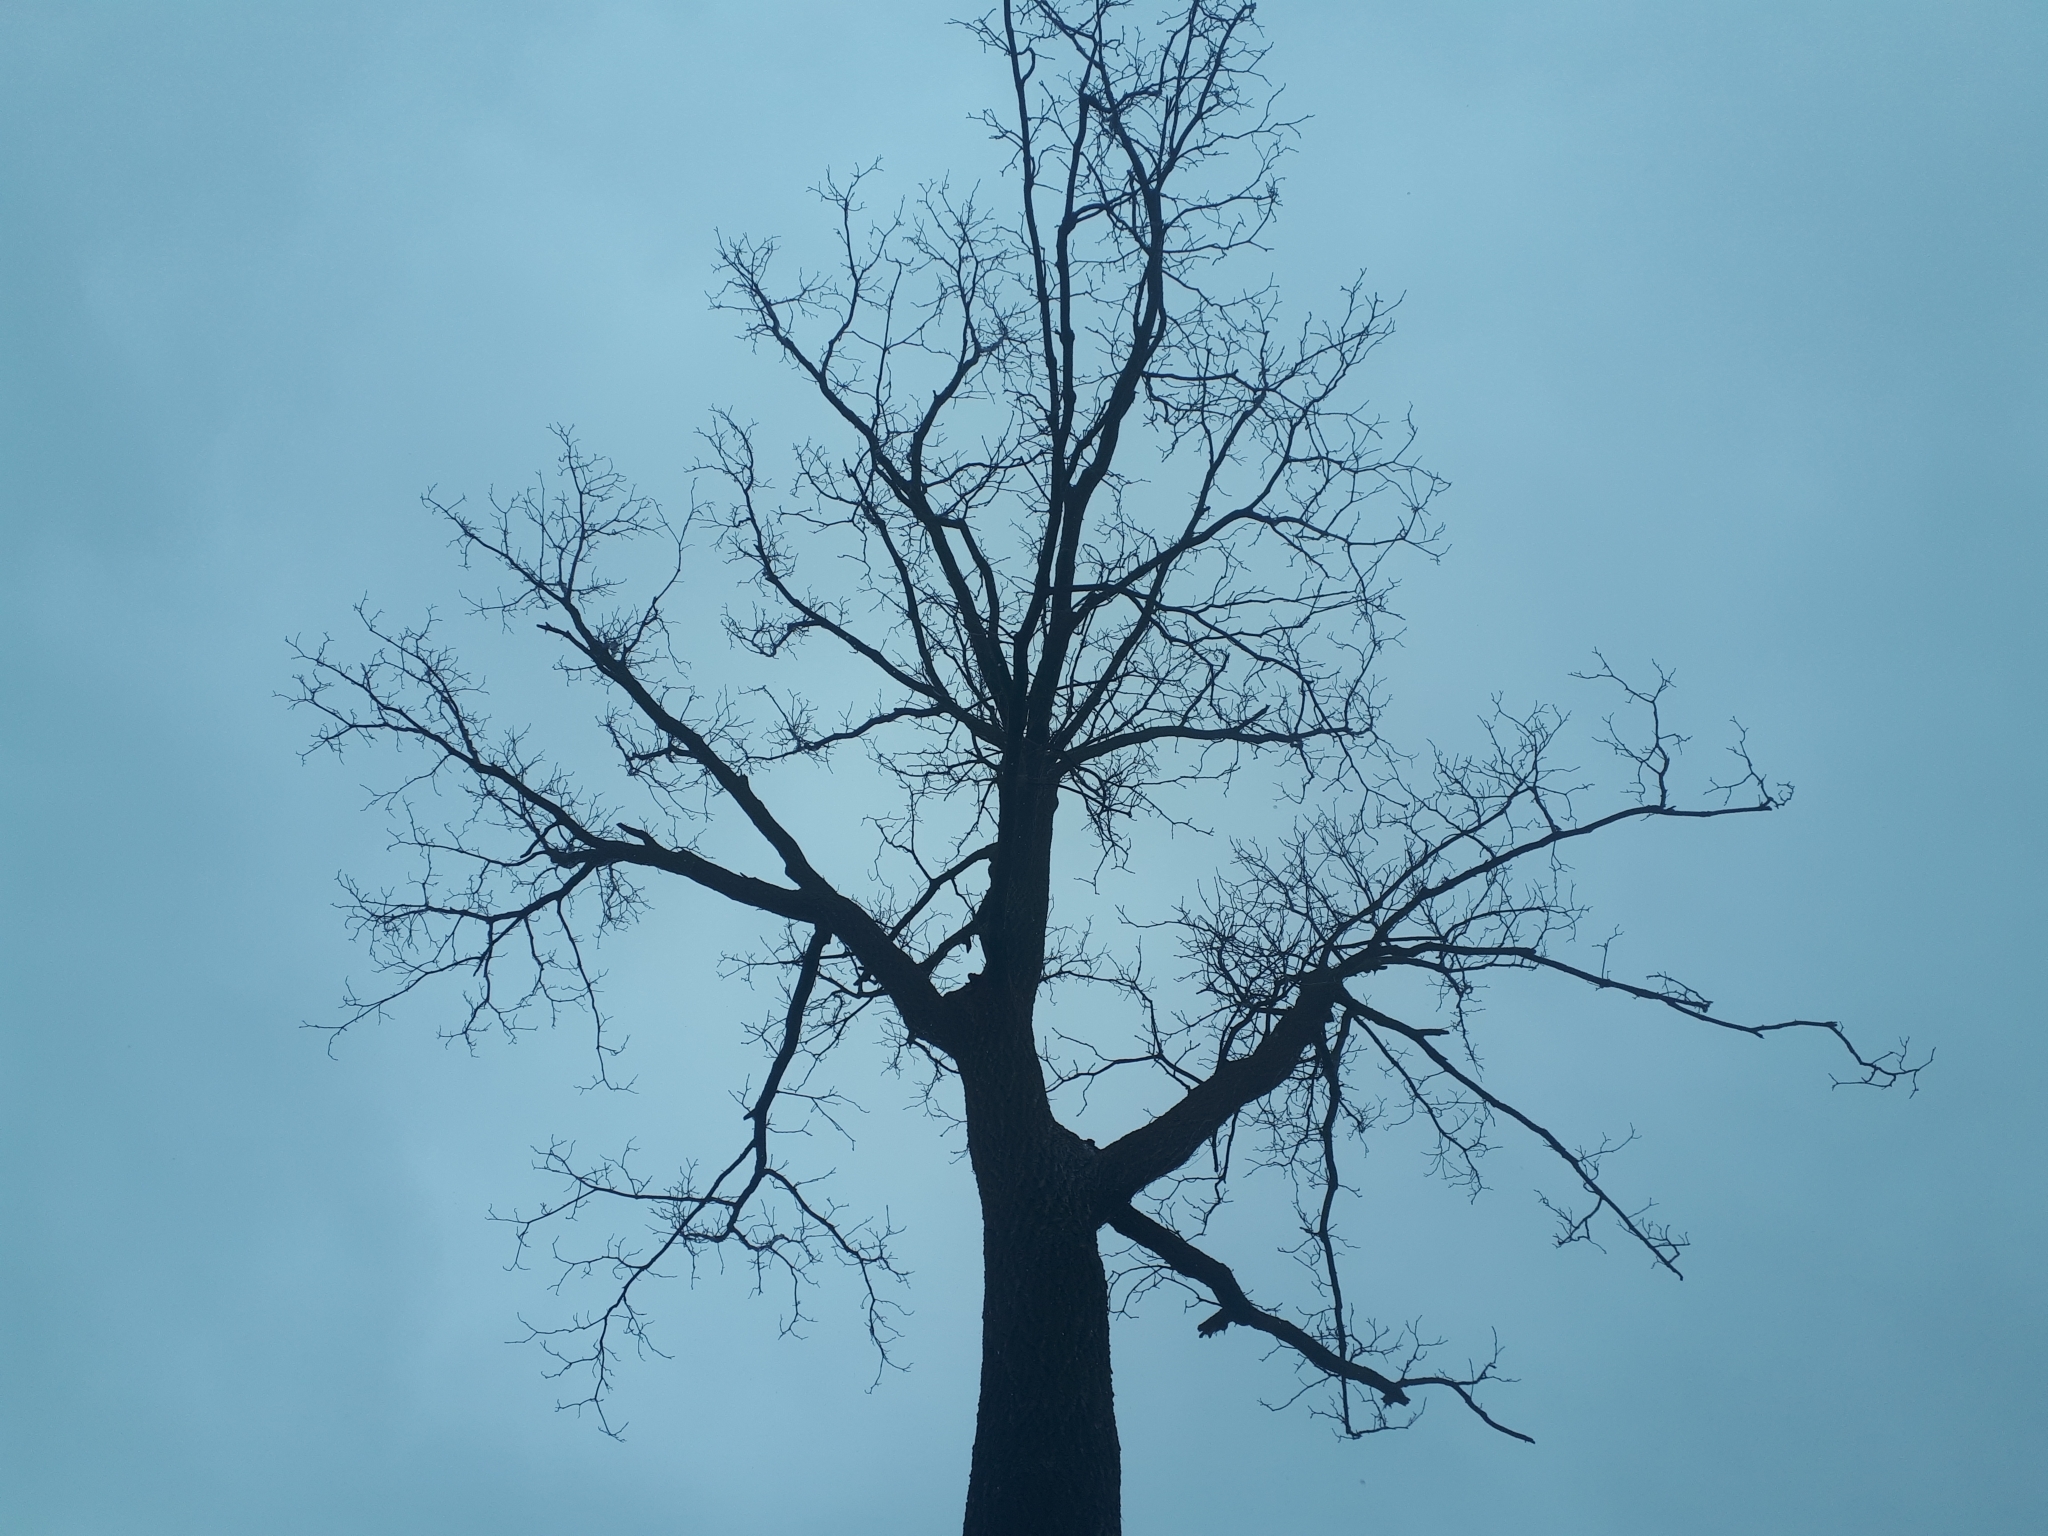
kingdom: Plantae
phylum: Tracheophyta
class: Magnoliopsida
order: Fagales
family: Juglandaceae
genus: Juglans
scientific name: Juglans nigra
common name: Black walnut
